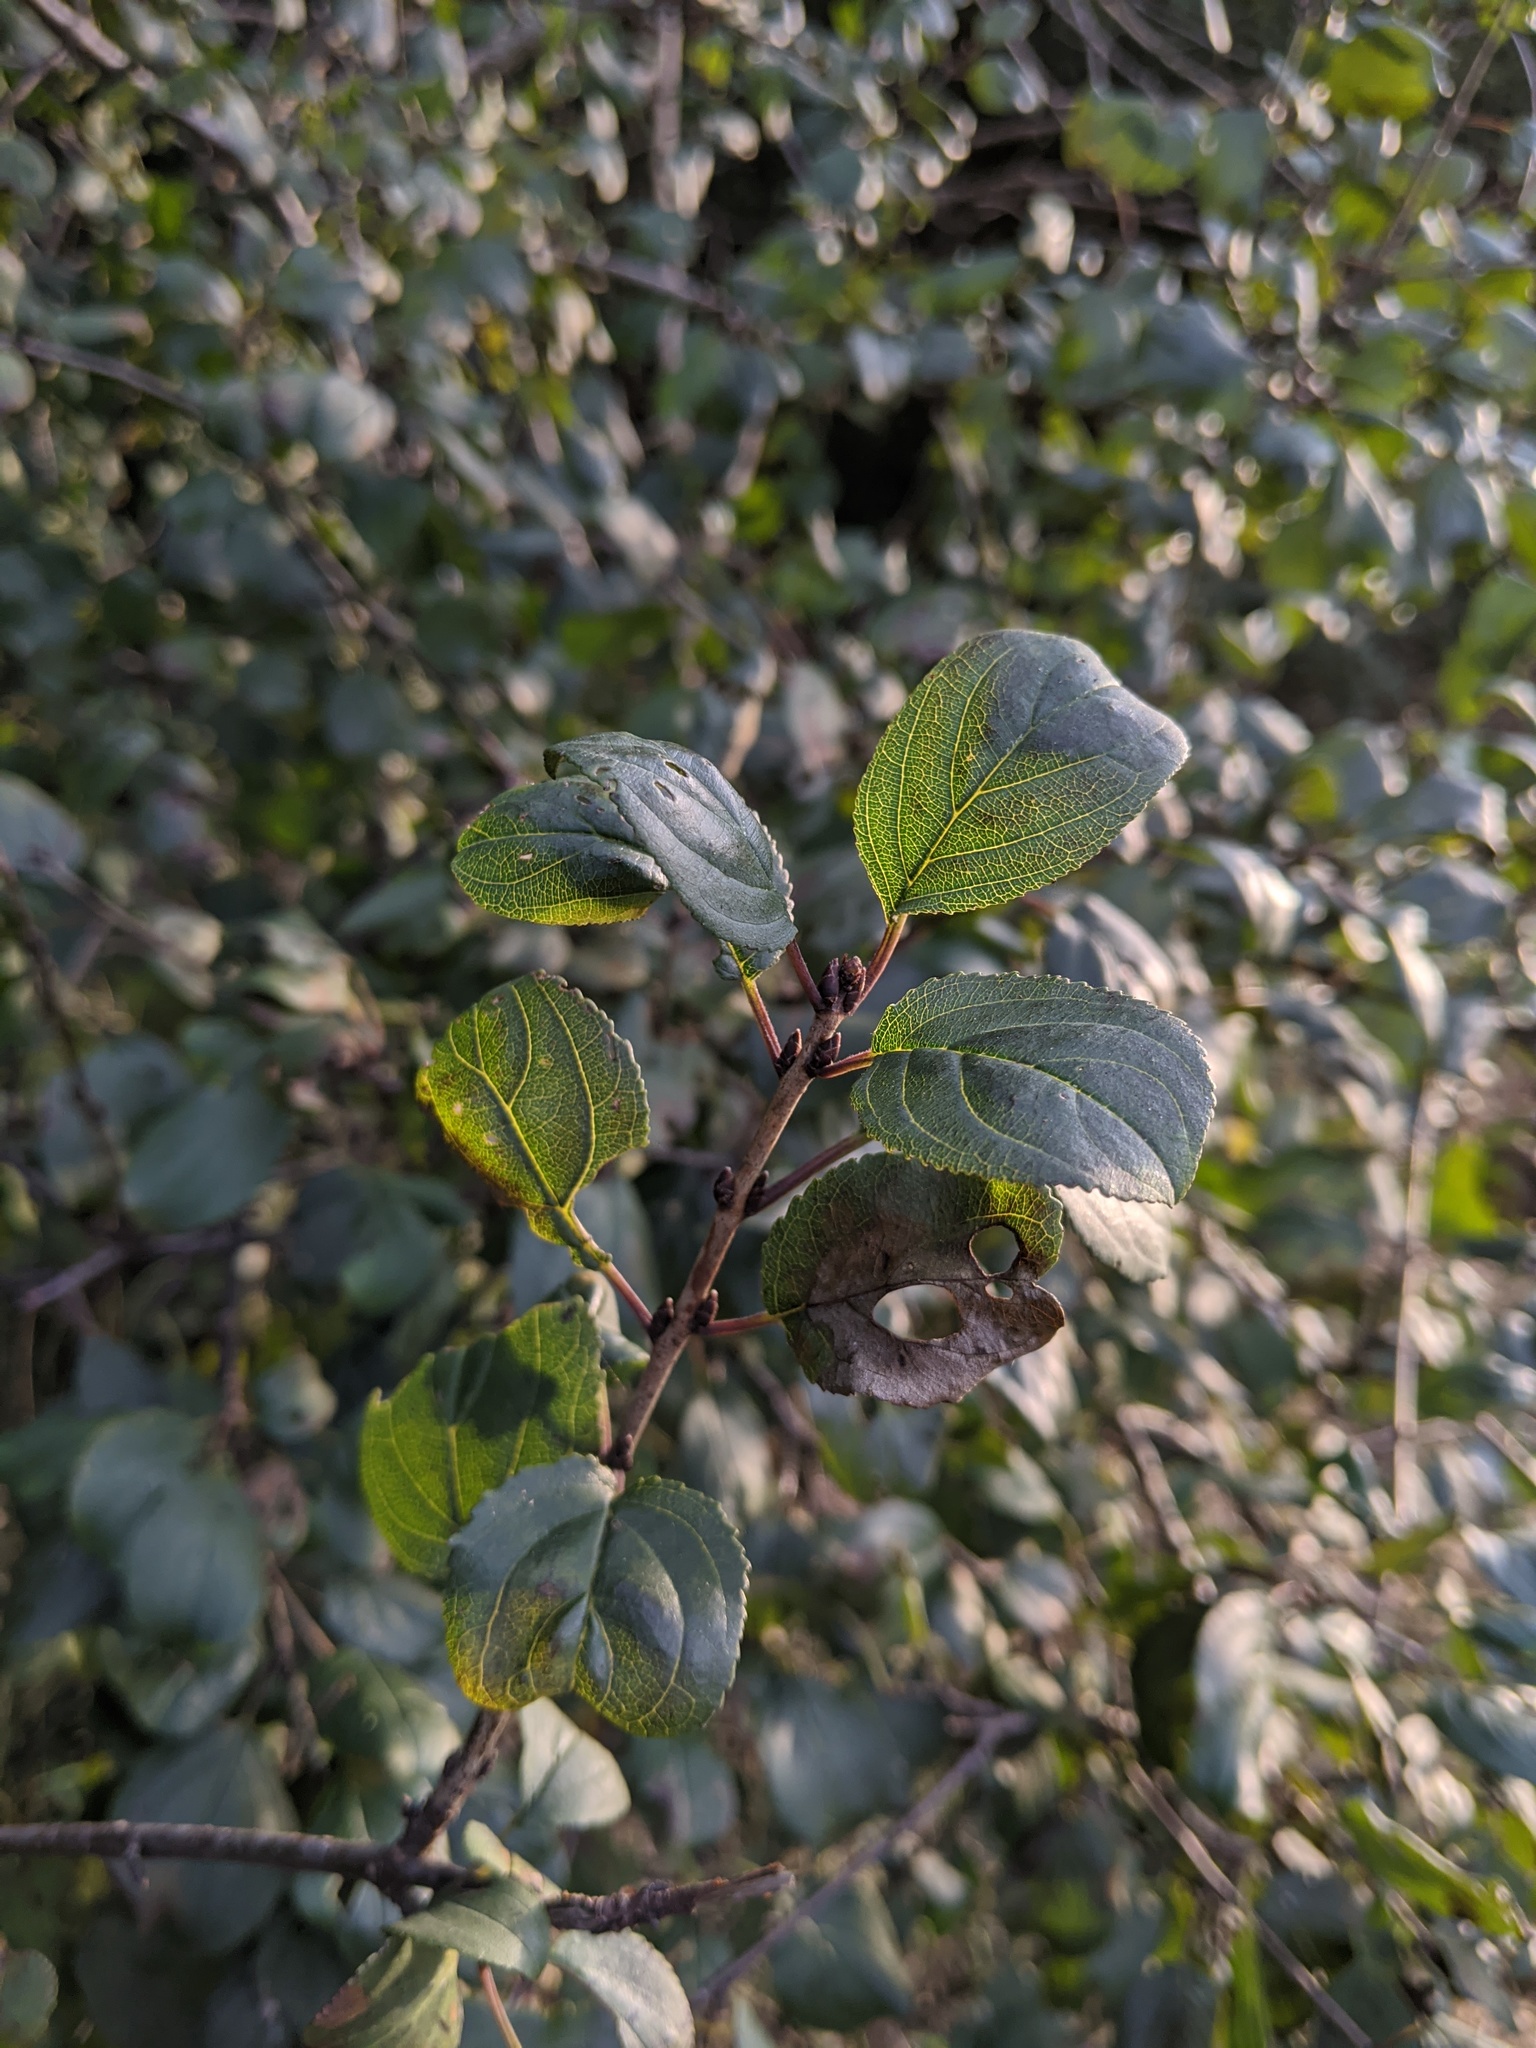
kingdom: Plantae
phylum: Tracheophyta
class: Magnoliopsida
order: Rosales
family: Rhamnaceae
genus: Rhamnus
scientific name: Rhamnus cathartica
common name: Common buckthorn
